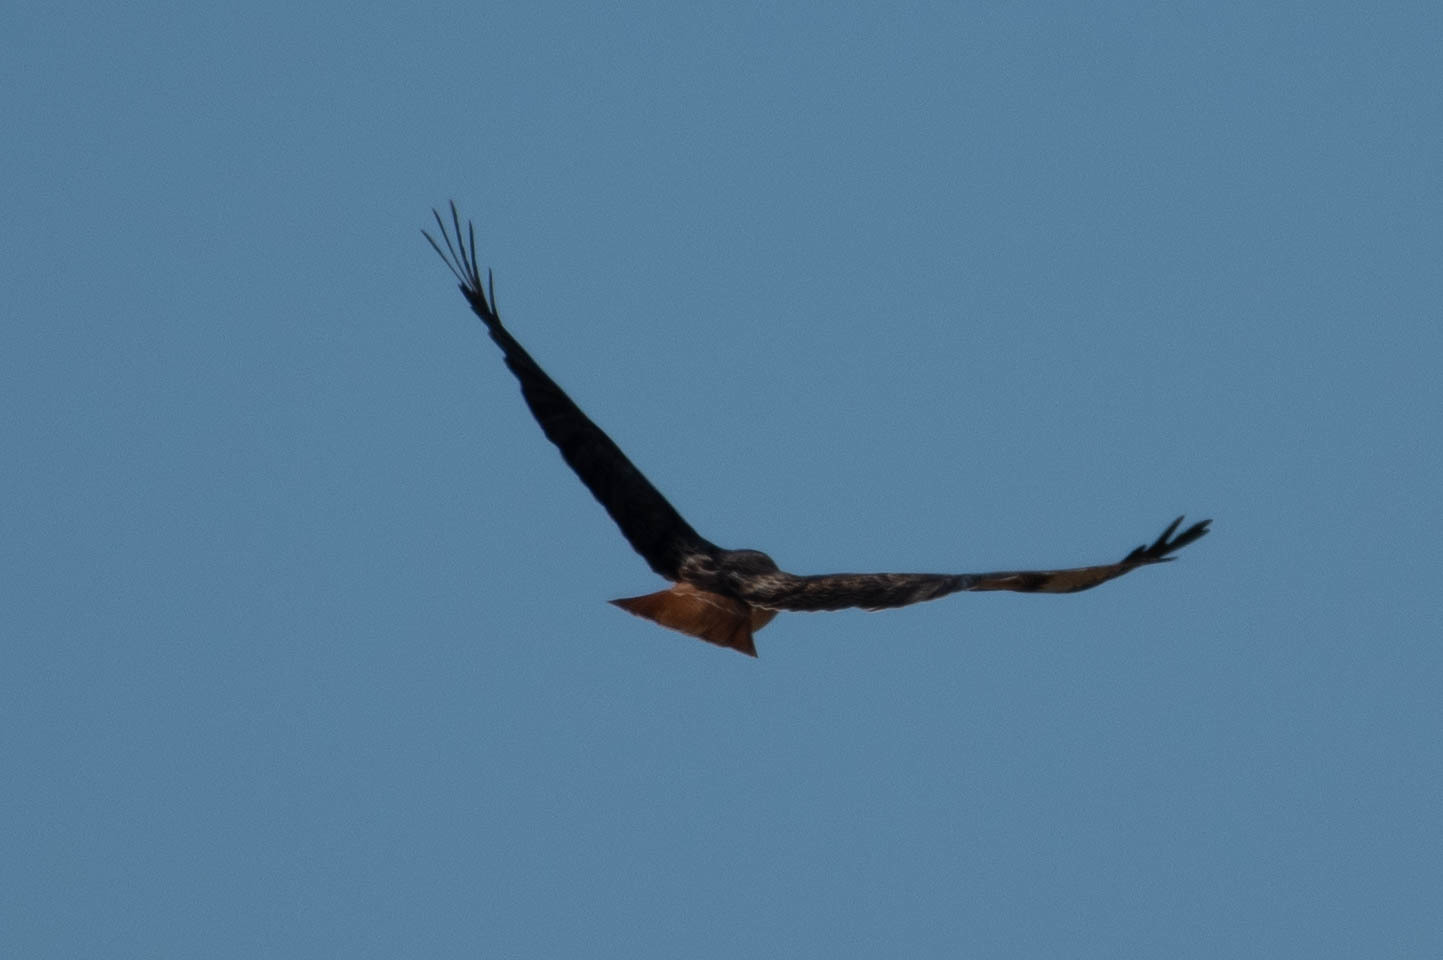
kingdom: Animalia
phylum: Chordata
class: Aves
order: Accipitriformes
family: Accipitridae
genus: Buteo
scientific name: Buteo jamaicensis
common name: Red-tailed hawk
